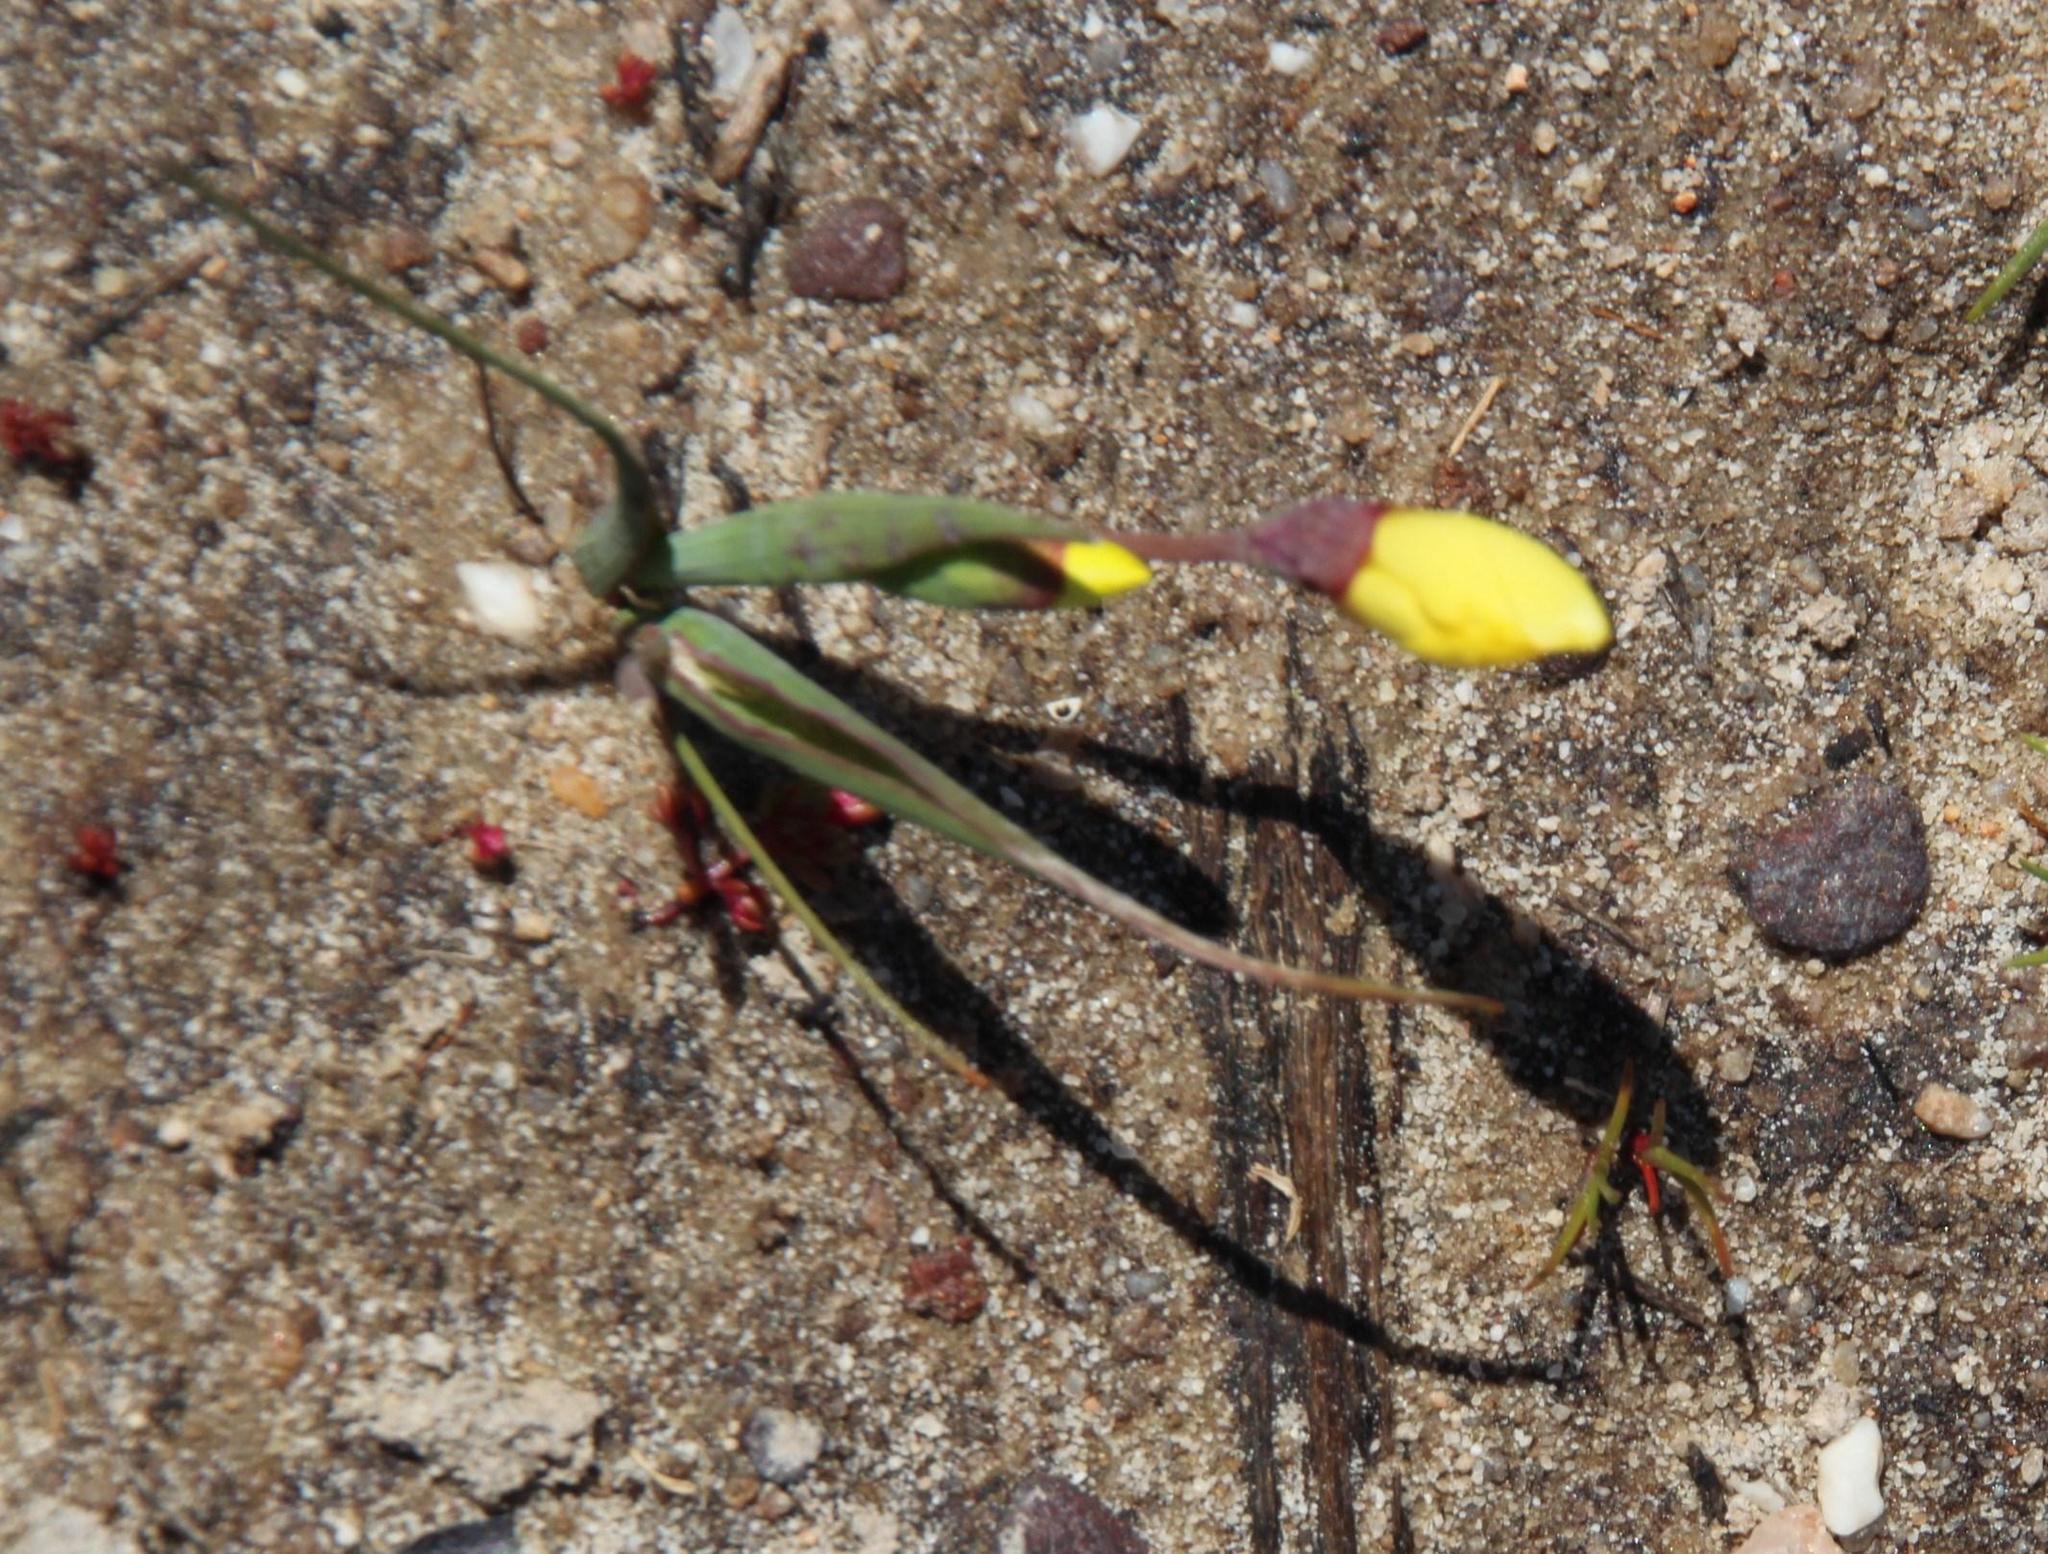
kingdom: Plantae
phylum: Tracheophyta
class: Liliopsida
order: Asparagales
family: Iridaceae
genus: Geissorhiza
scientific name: Geissorhiza ornithogaloides
